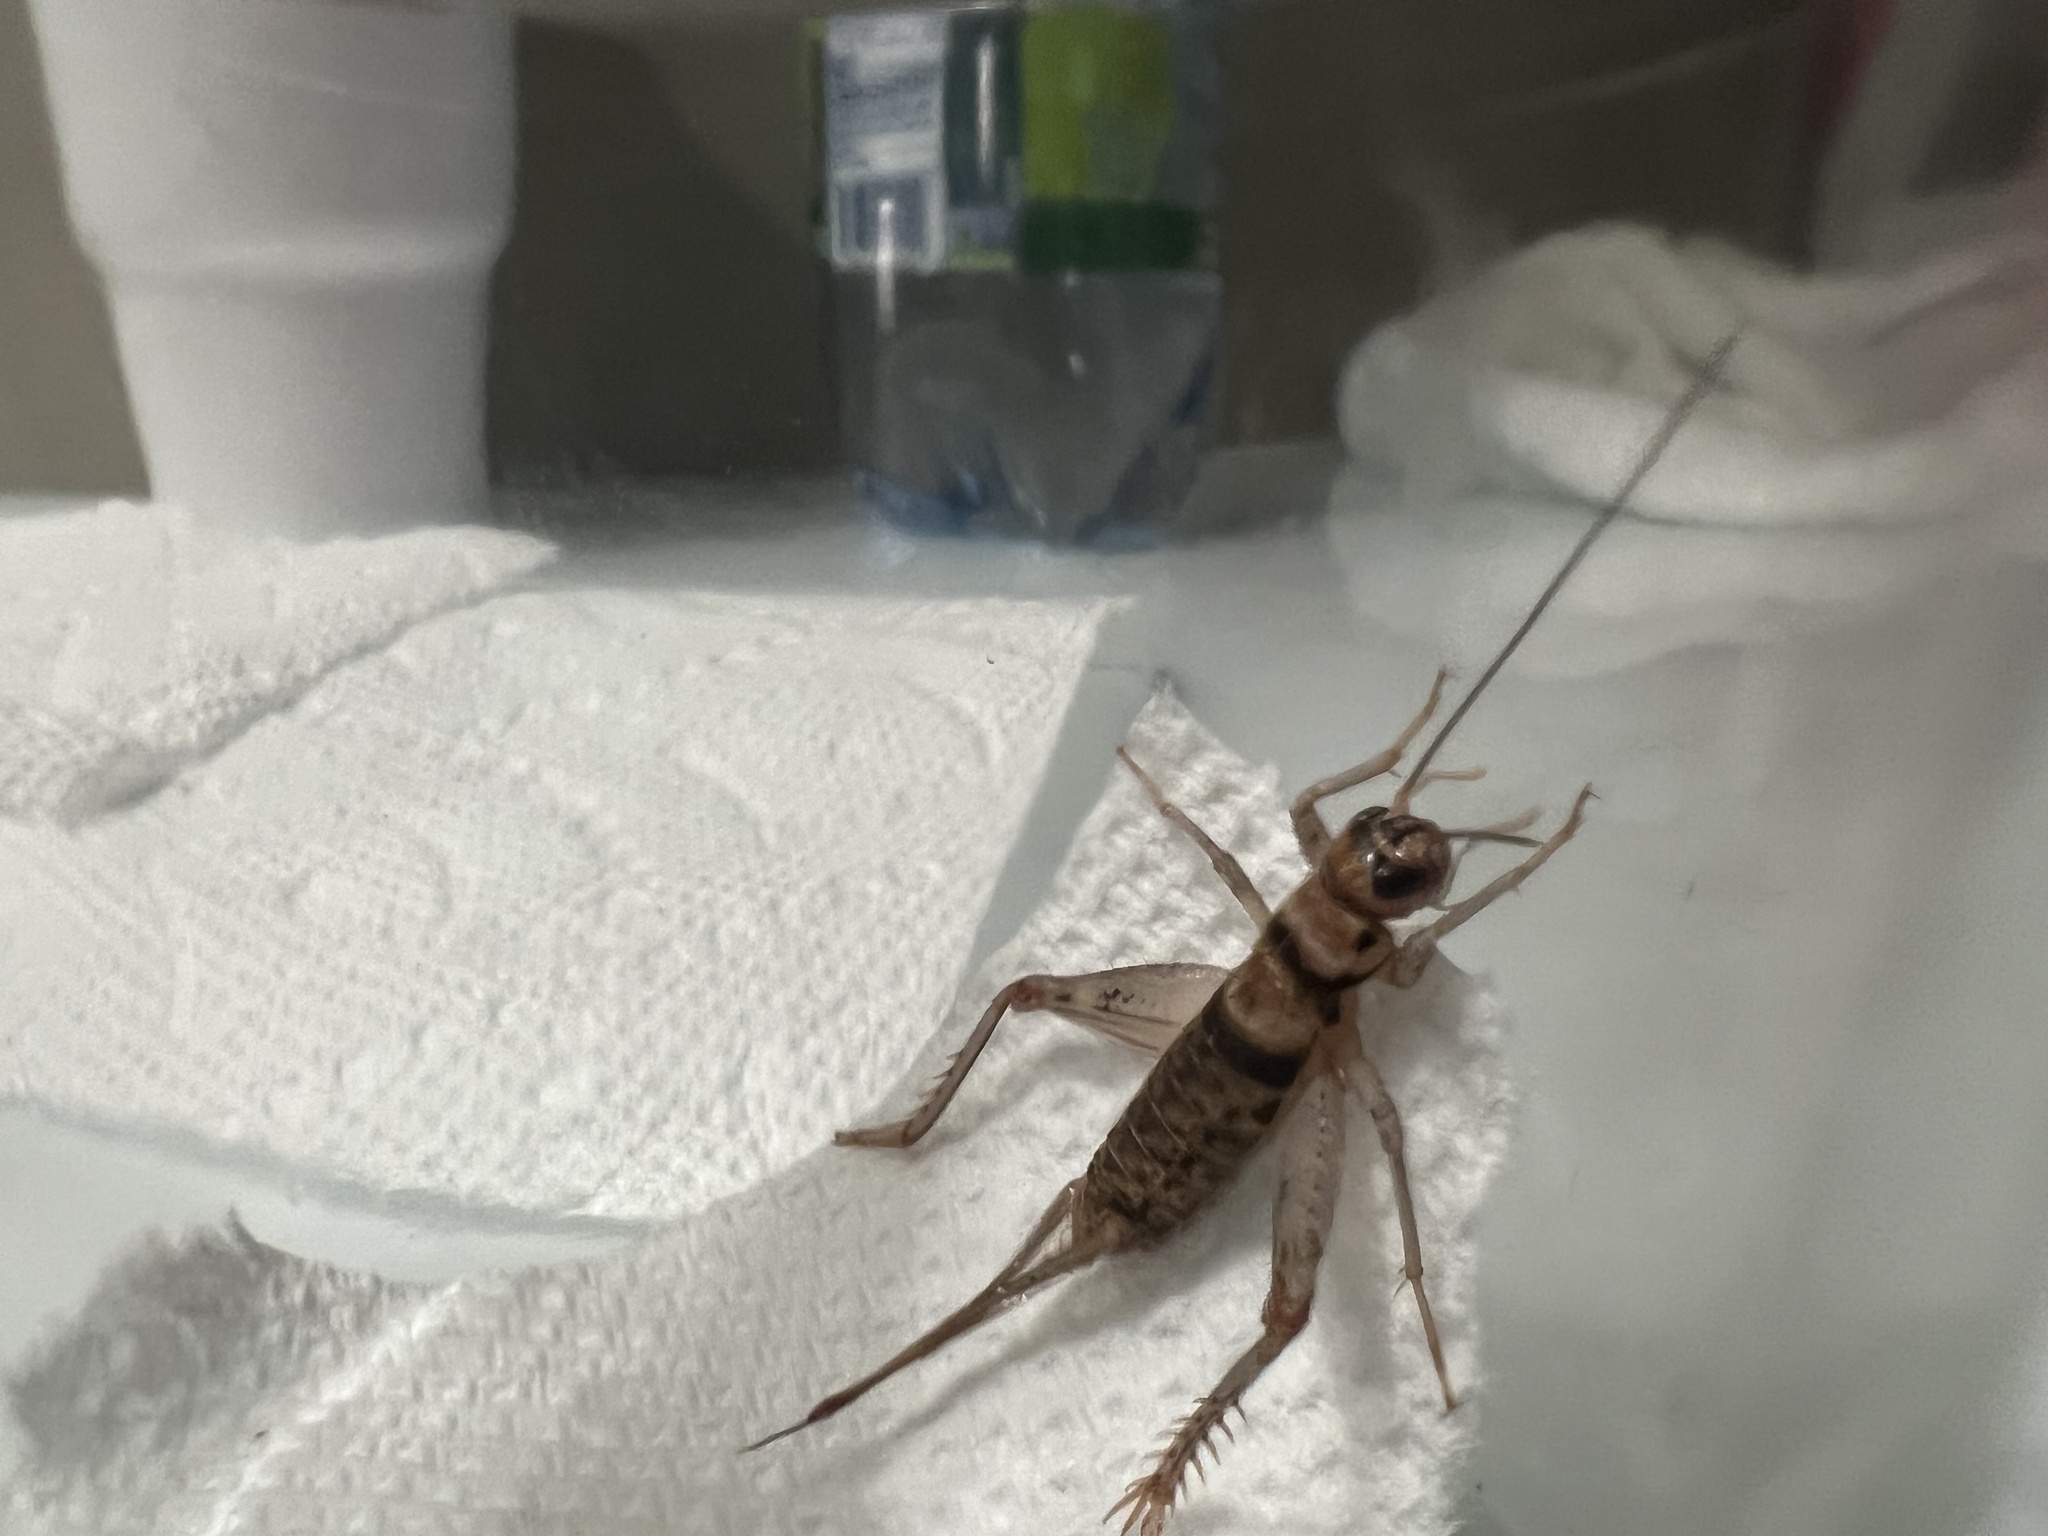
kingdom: Animalia
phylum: Arthropoda
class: Insecta
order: Orthoptera
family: Gryllidae
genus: Gryllodes
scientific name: Gryllodes sigillatus
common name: Tropical house cricket
